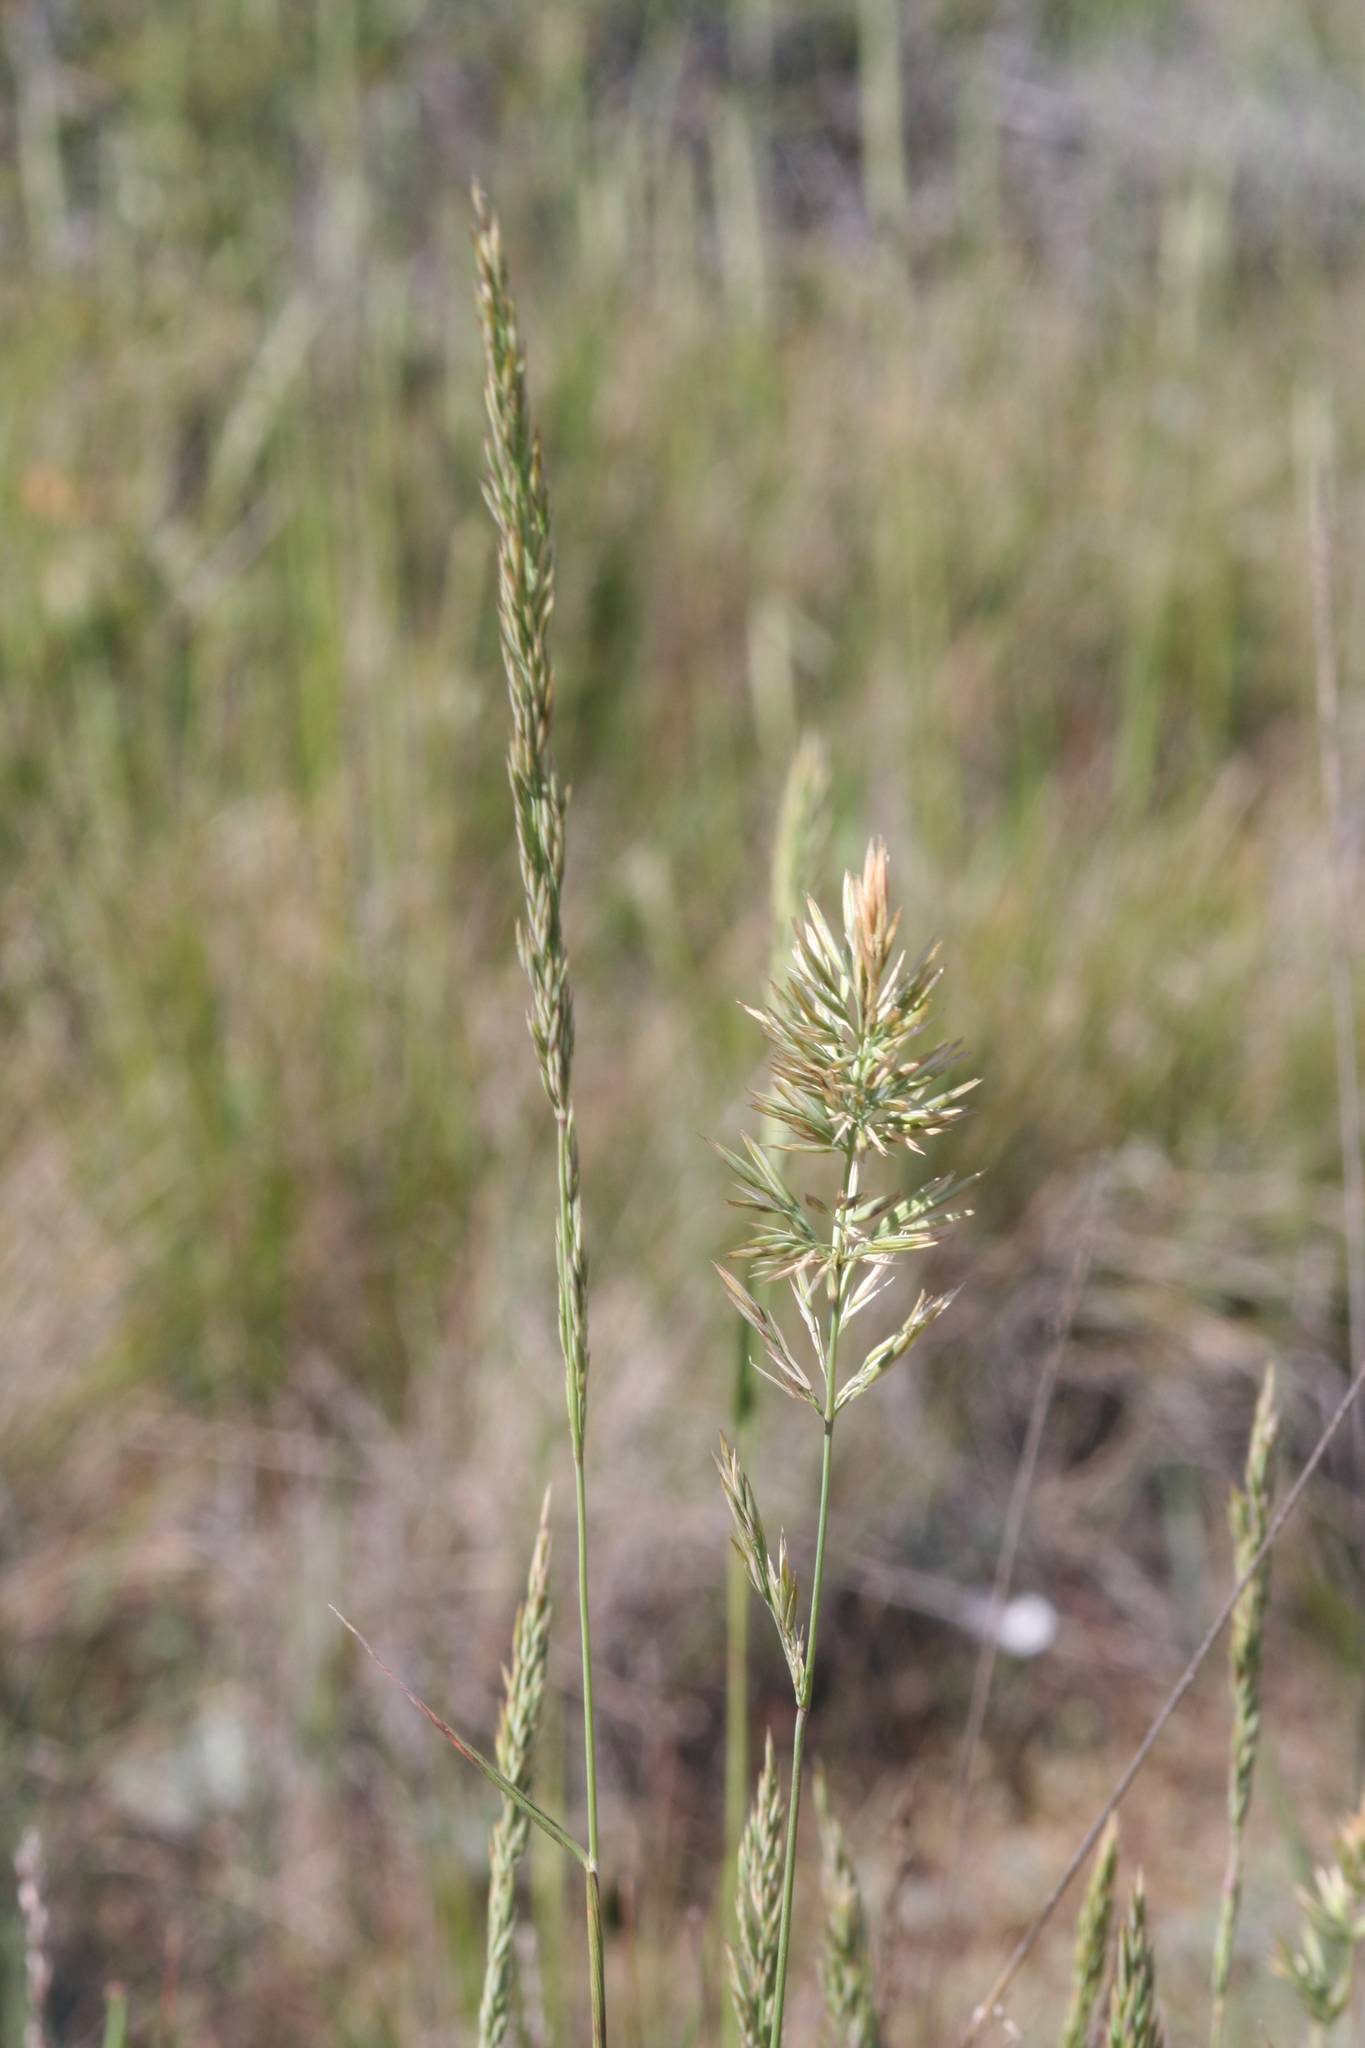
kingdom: Plantae
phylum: Tracheophyta
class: Liliopsida
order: Poales
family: Poaceae
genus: Calamagrostis
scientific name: Calamagrostis ophitidis
